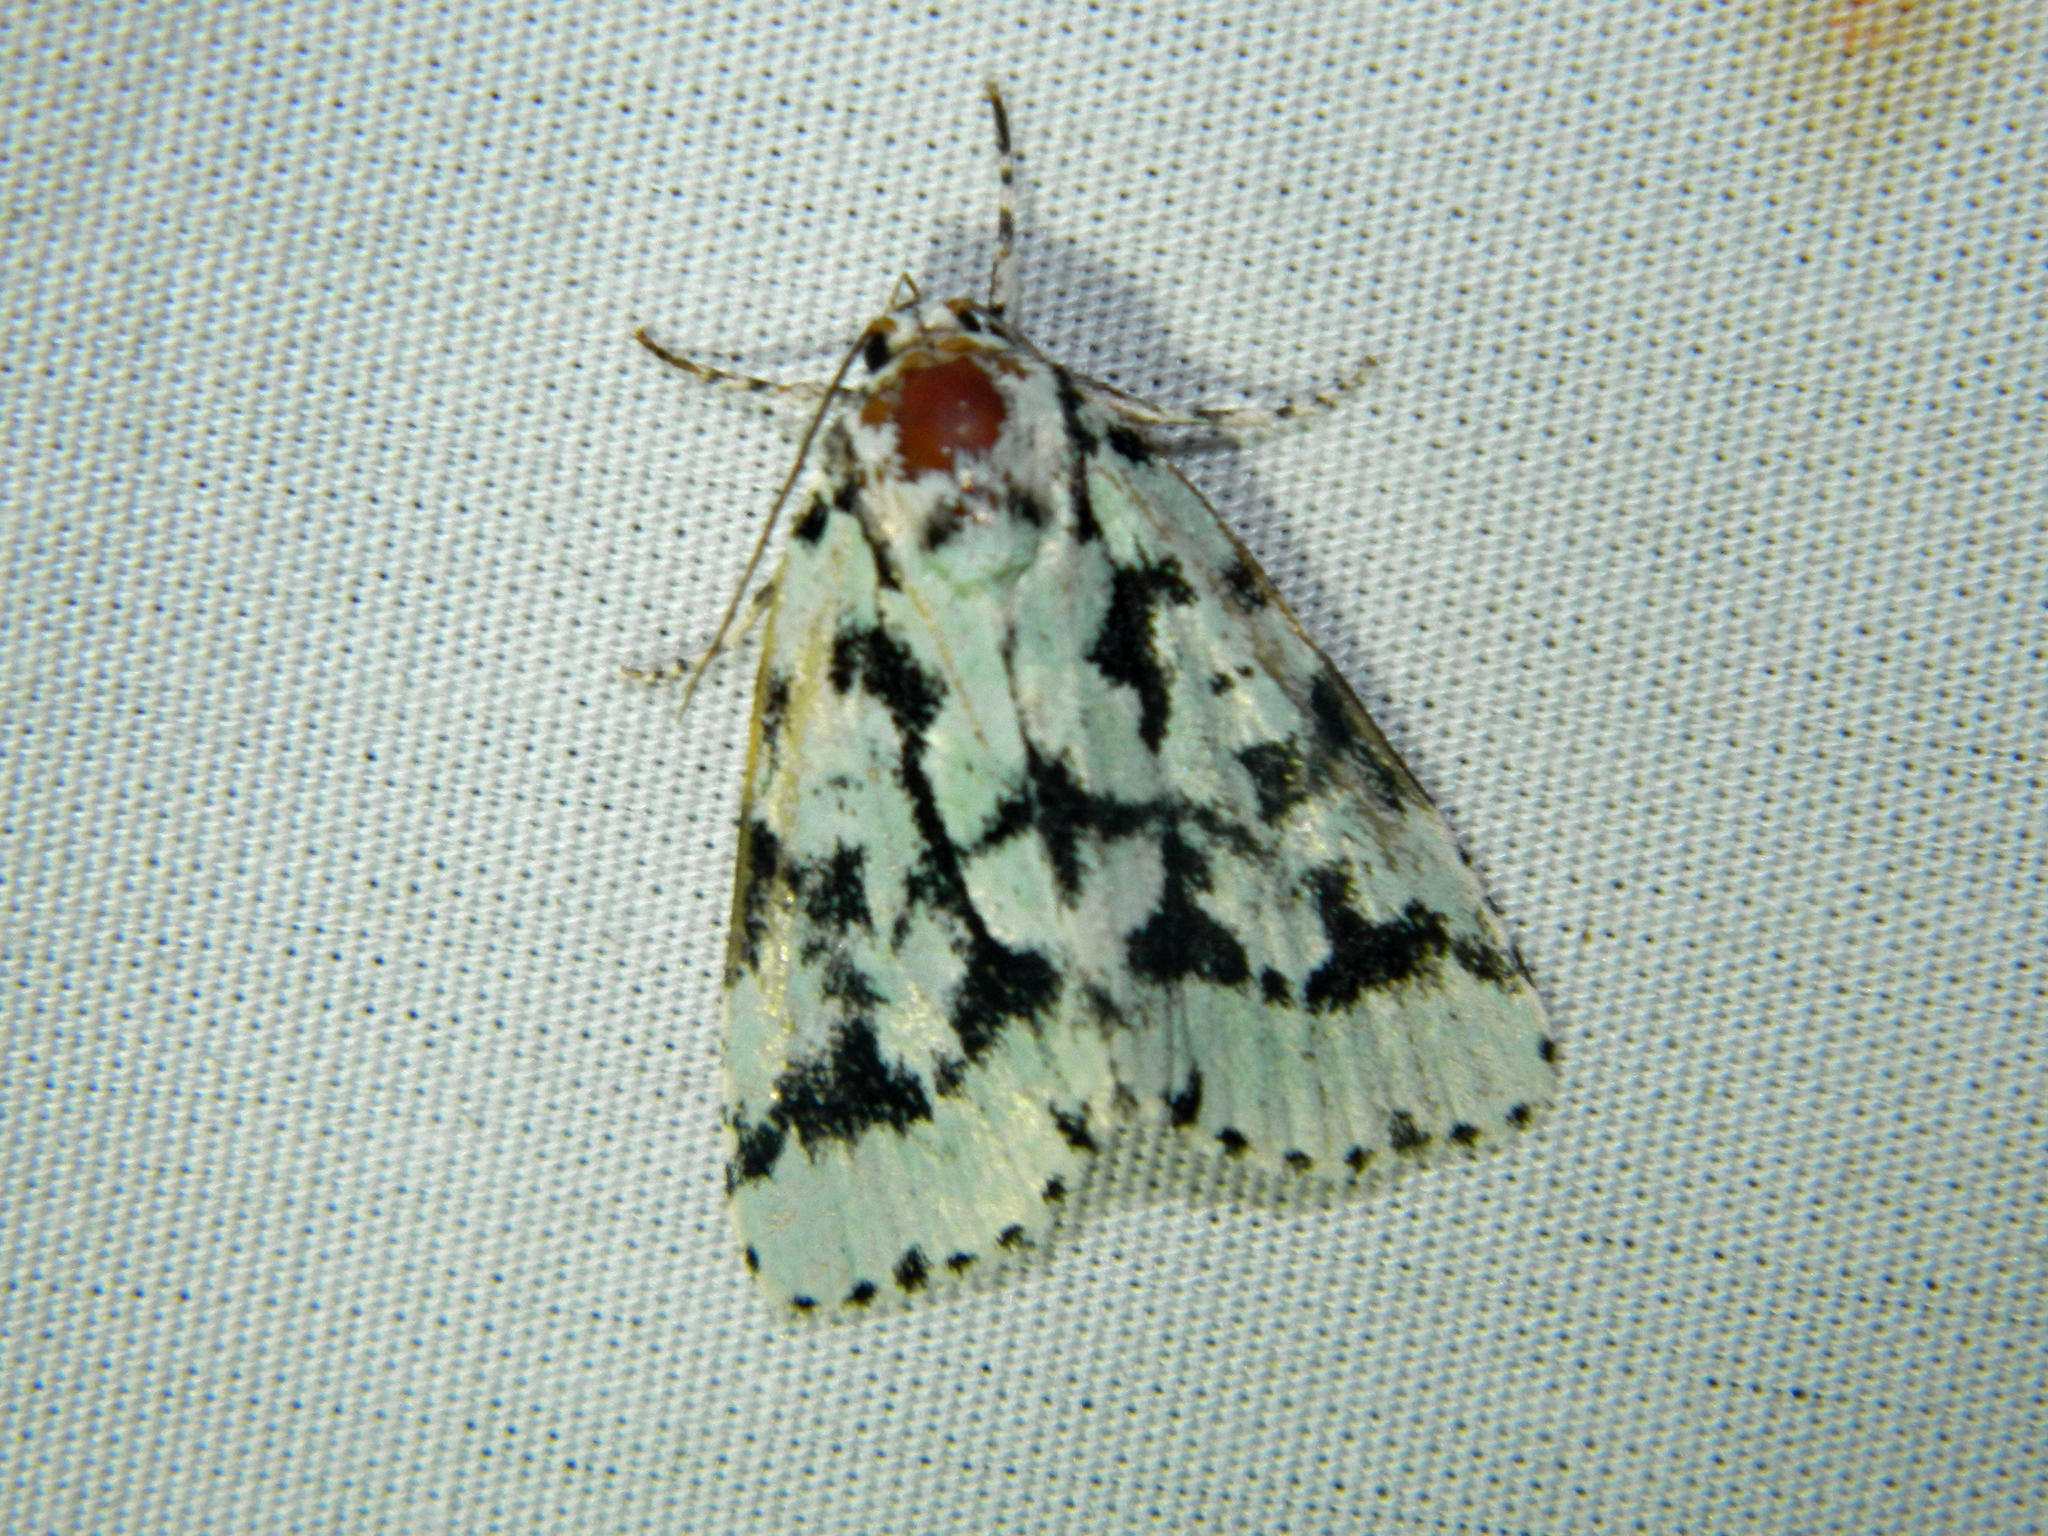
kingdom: Animalia
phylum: Arthropoda
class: Insecta
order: Lepidoptera
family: Noctuidae
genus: Acronicta
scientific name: Acronicta fallax
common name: Green marvel
